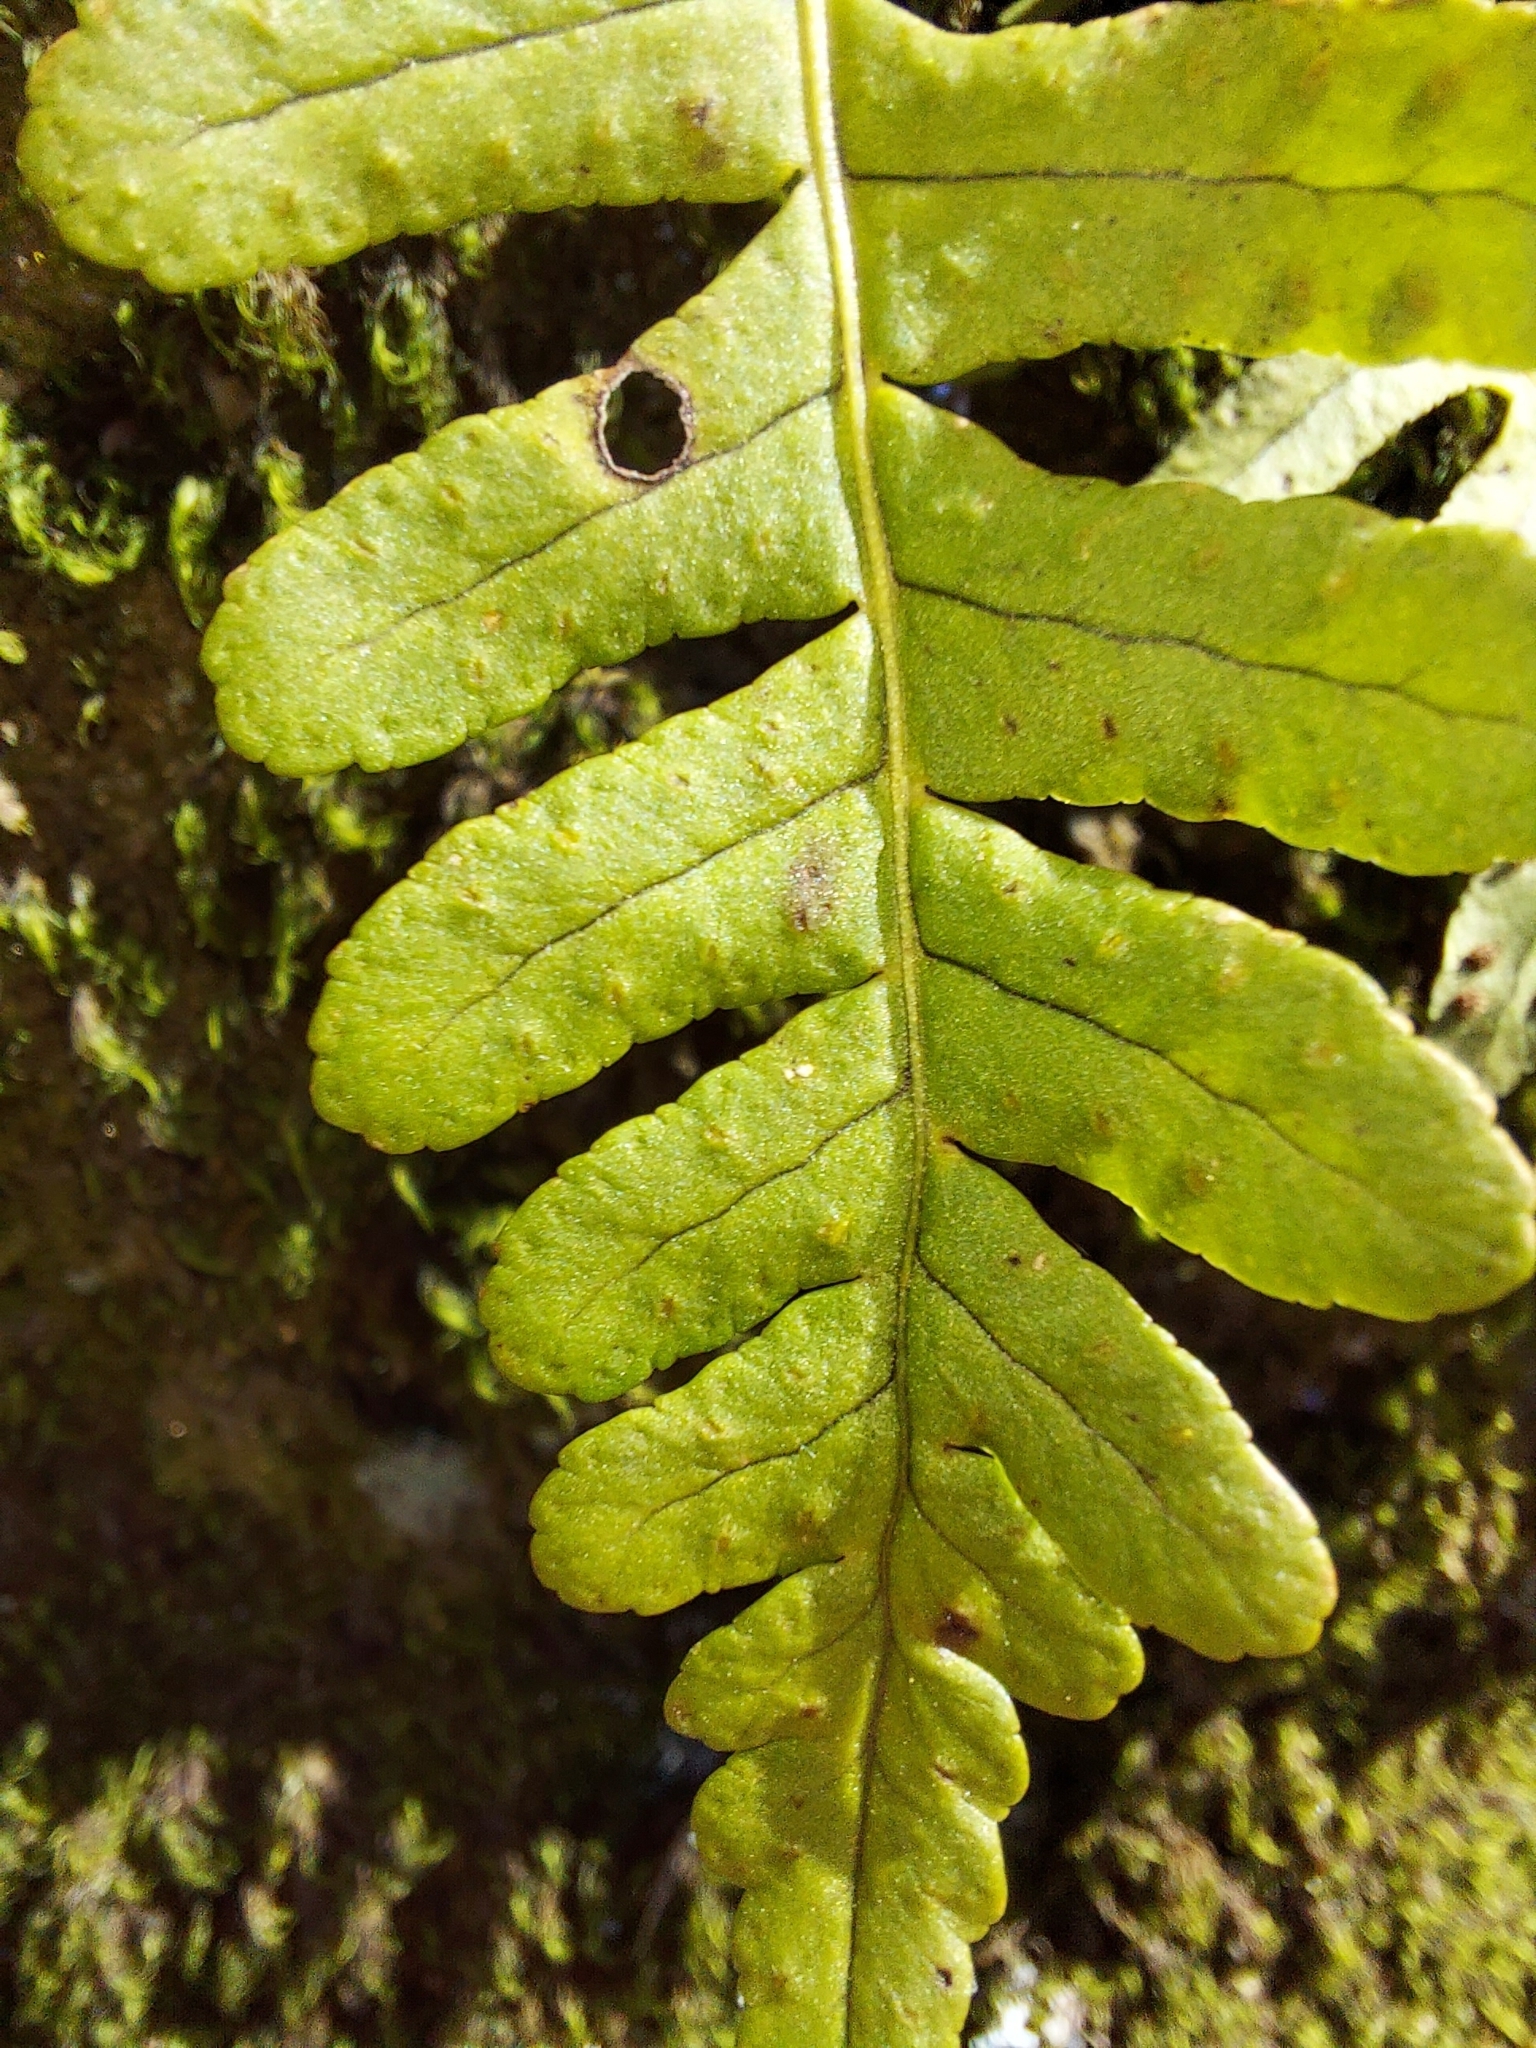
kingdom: Plantae
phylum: Tracheophyta
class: Polypodiopsida
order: Polypodiales
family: Polypodiaceae
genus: Polypodium
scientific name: Polypodium virginianum
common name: American wall fern
